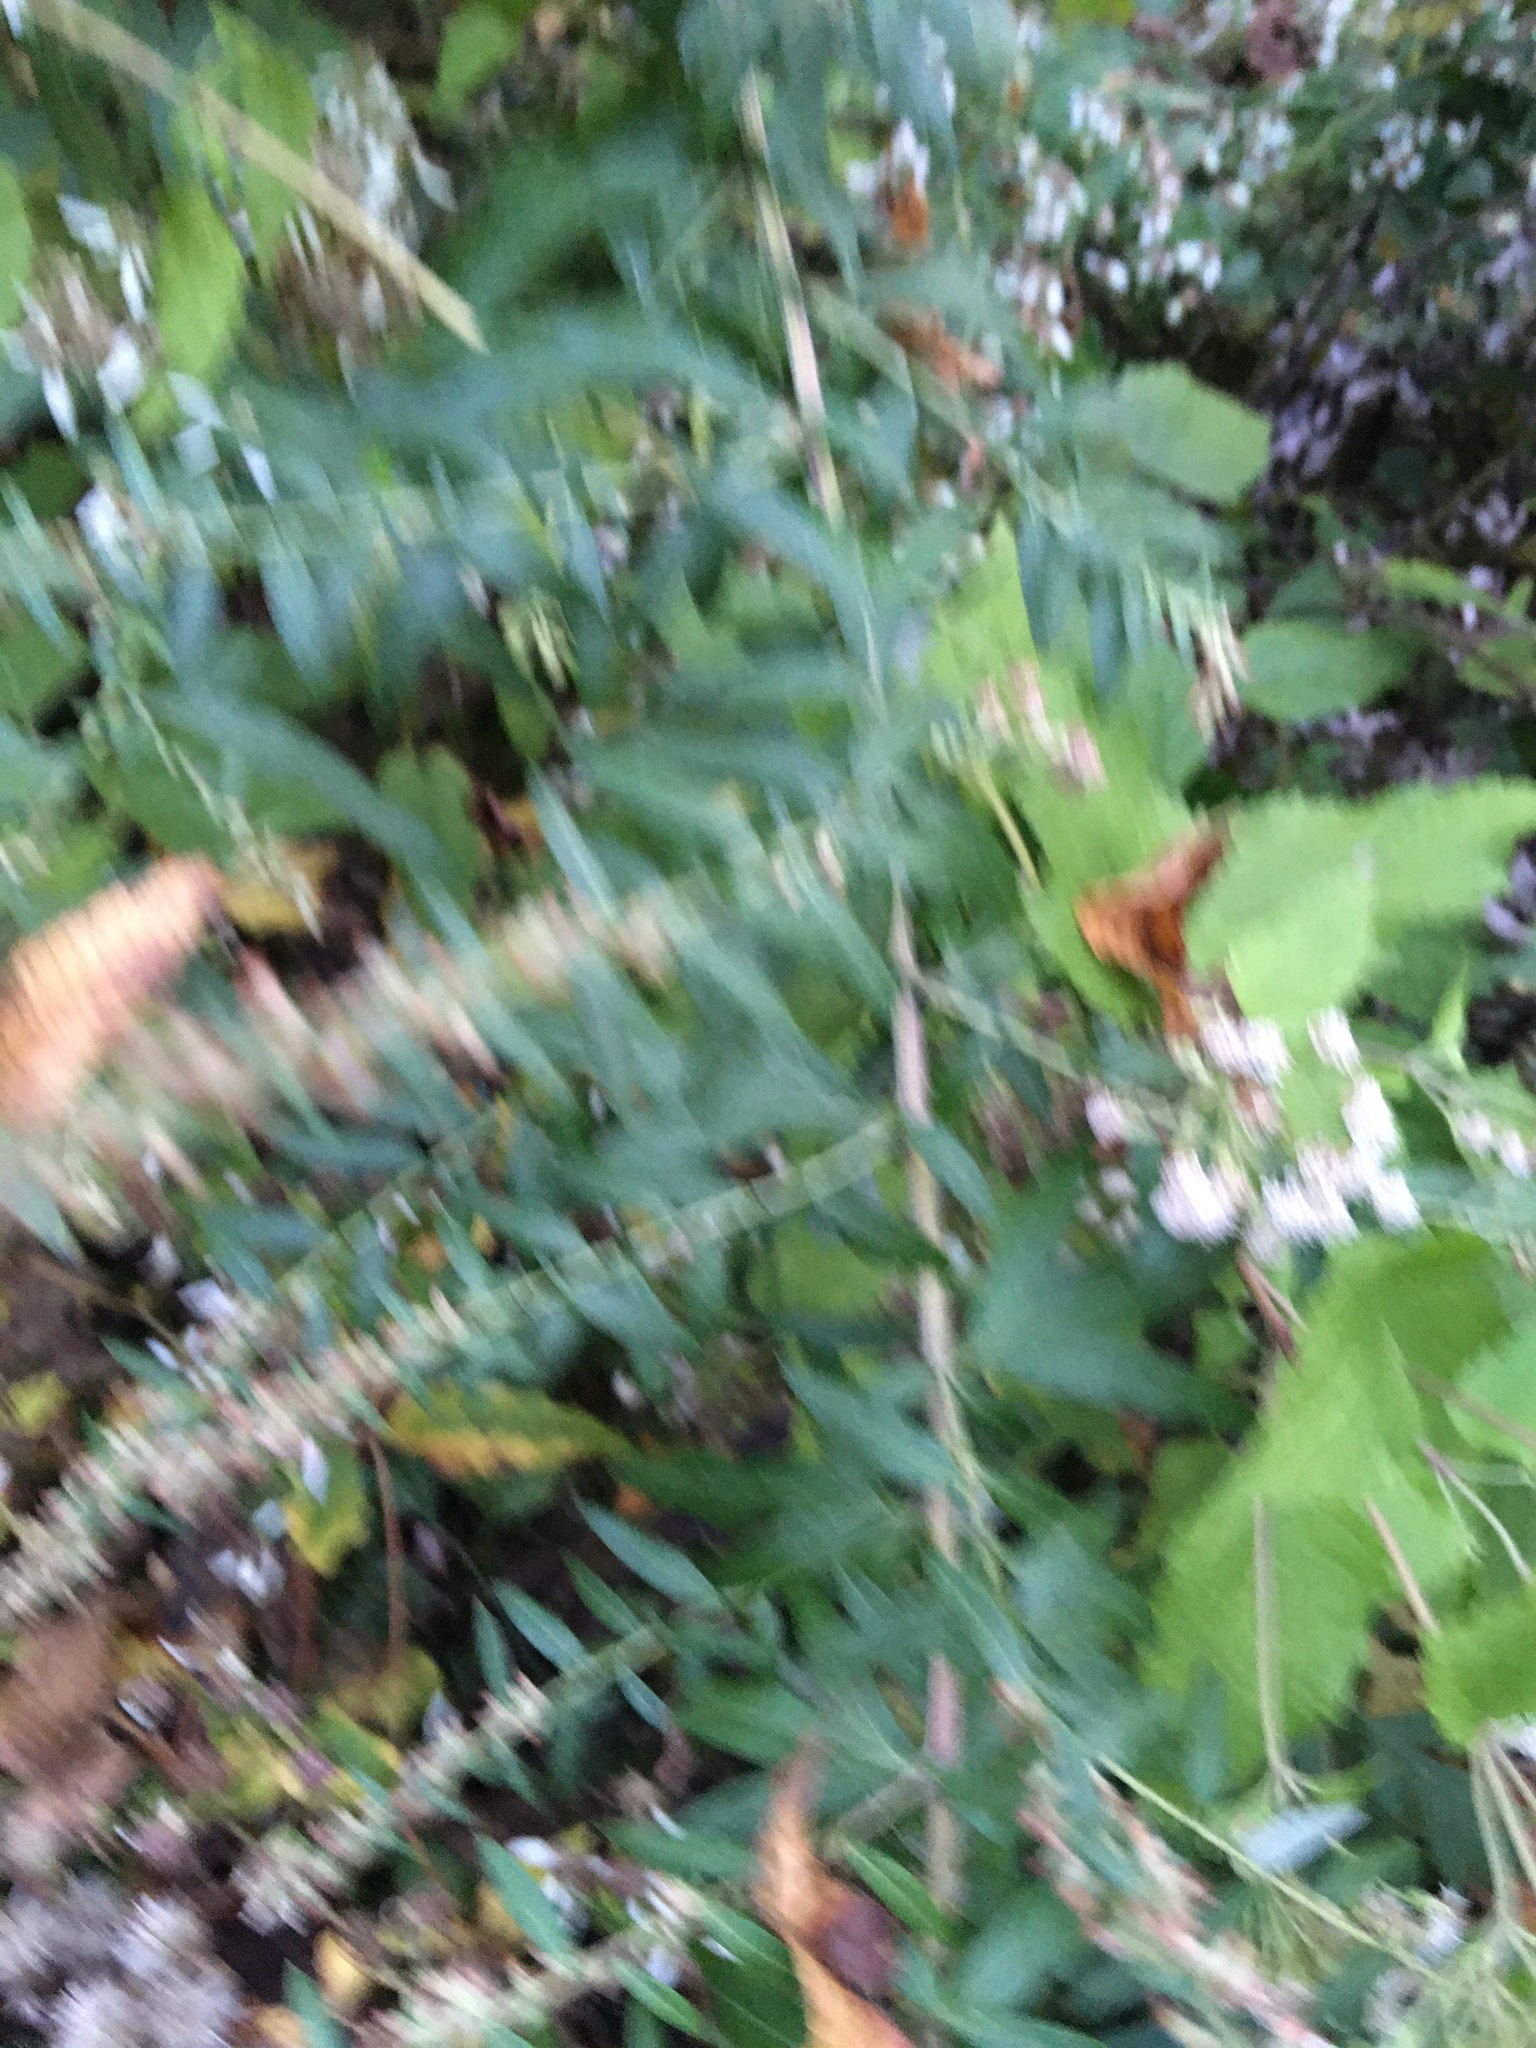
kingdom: Plantae
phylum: Tracheophyta
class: Magnoliopsida
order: Asterales
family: Asteraceae
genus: Artemisia
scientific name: Artemisia vulgaris
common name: Mugwort
